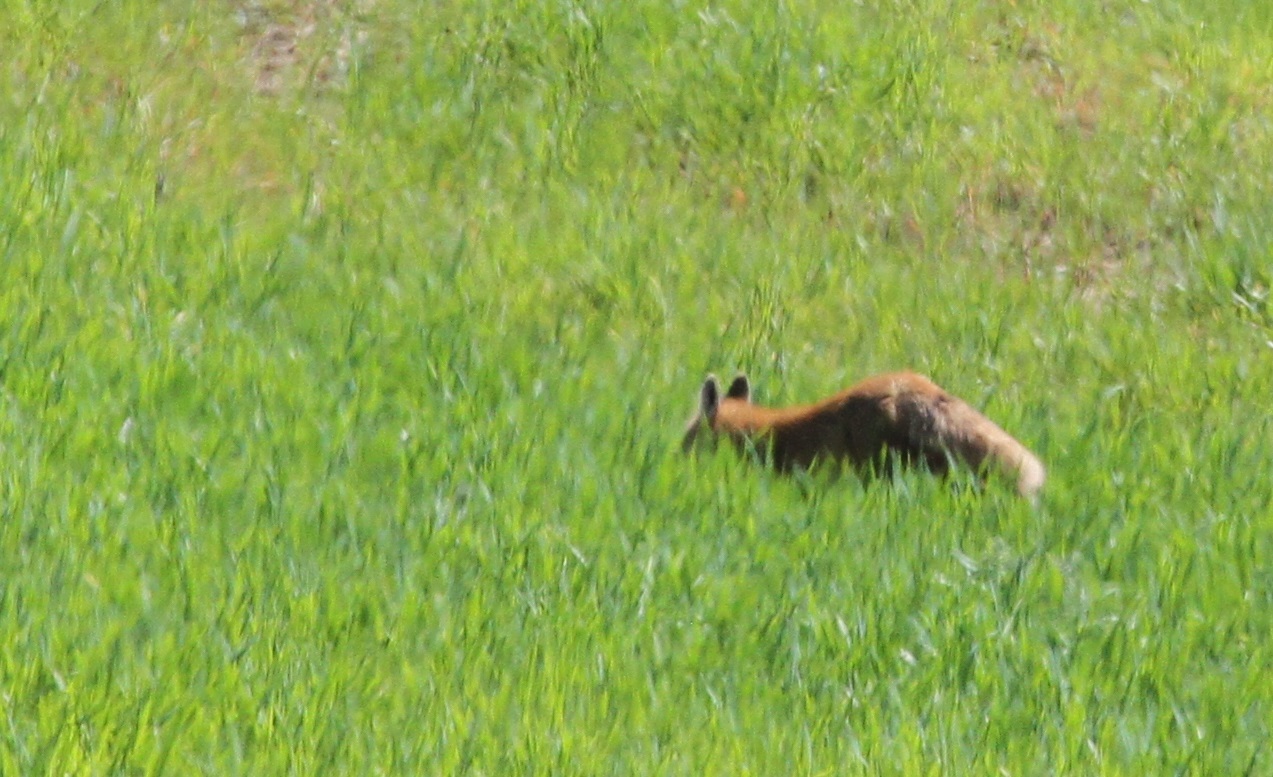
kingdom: Animalia
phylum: Chordata
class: Mammalia
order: Carnivora
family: Canidae
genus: Vulpes
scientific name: Vulpes vulpes
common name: Red fox
